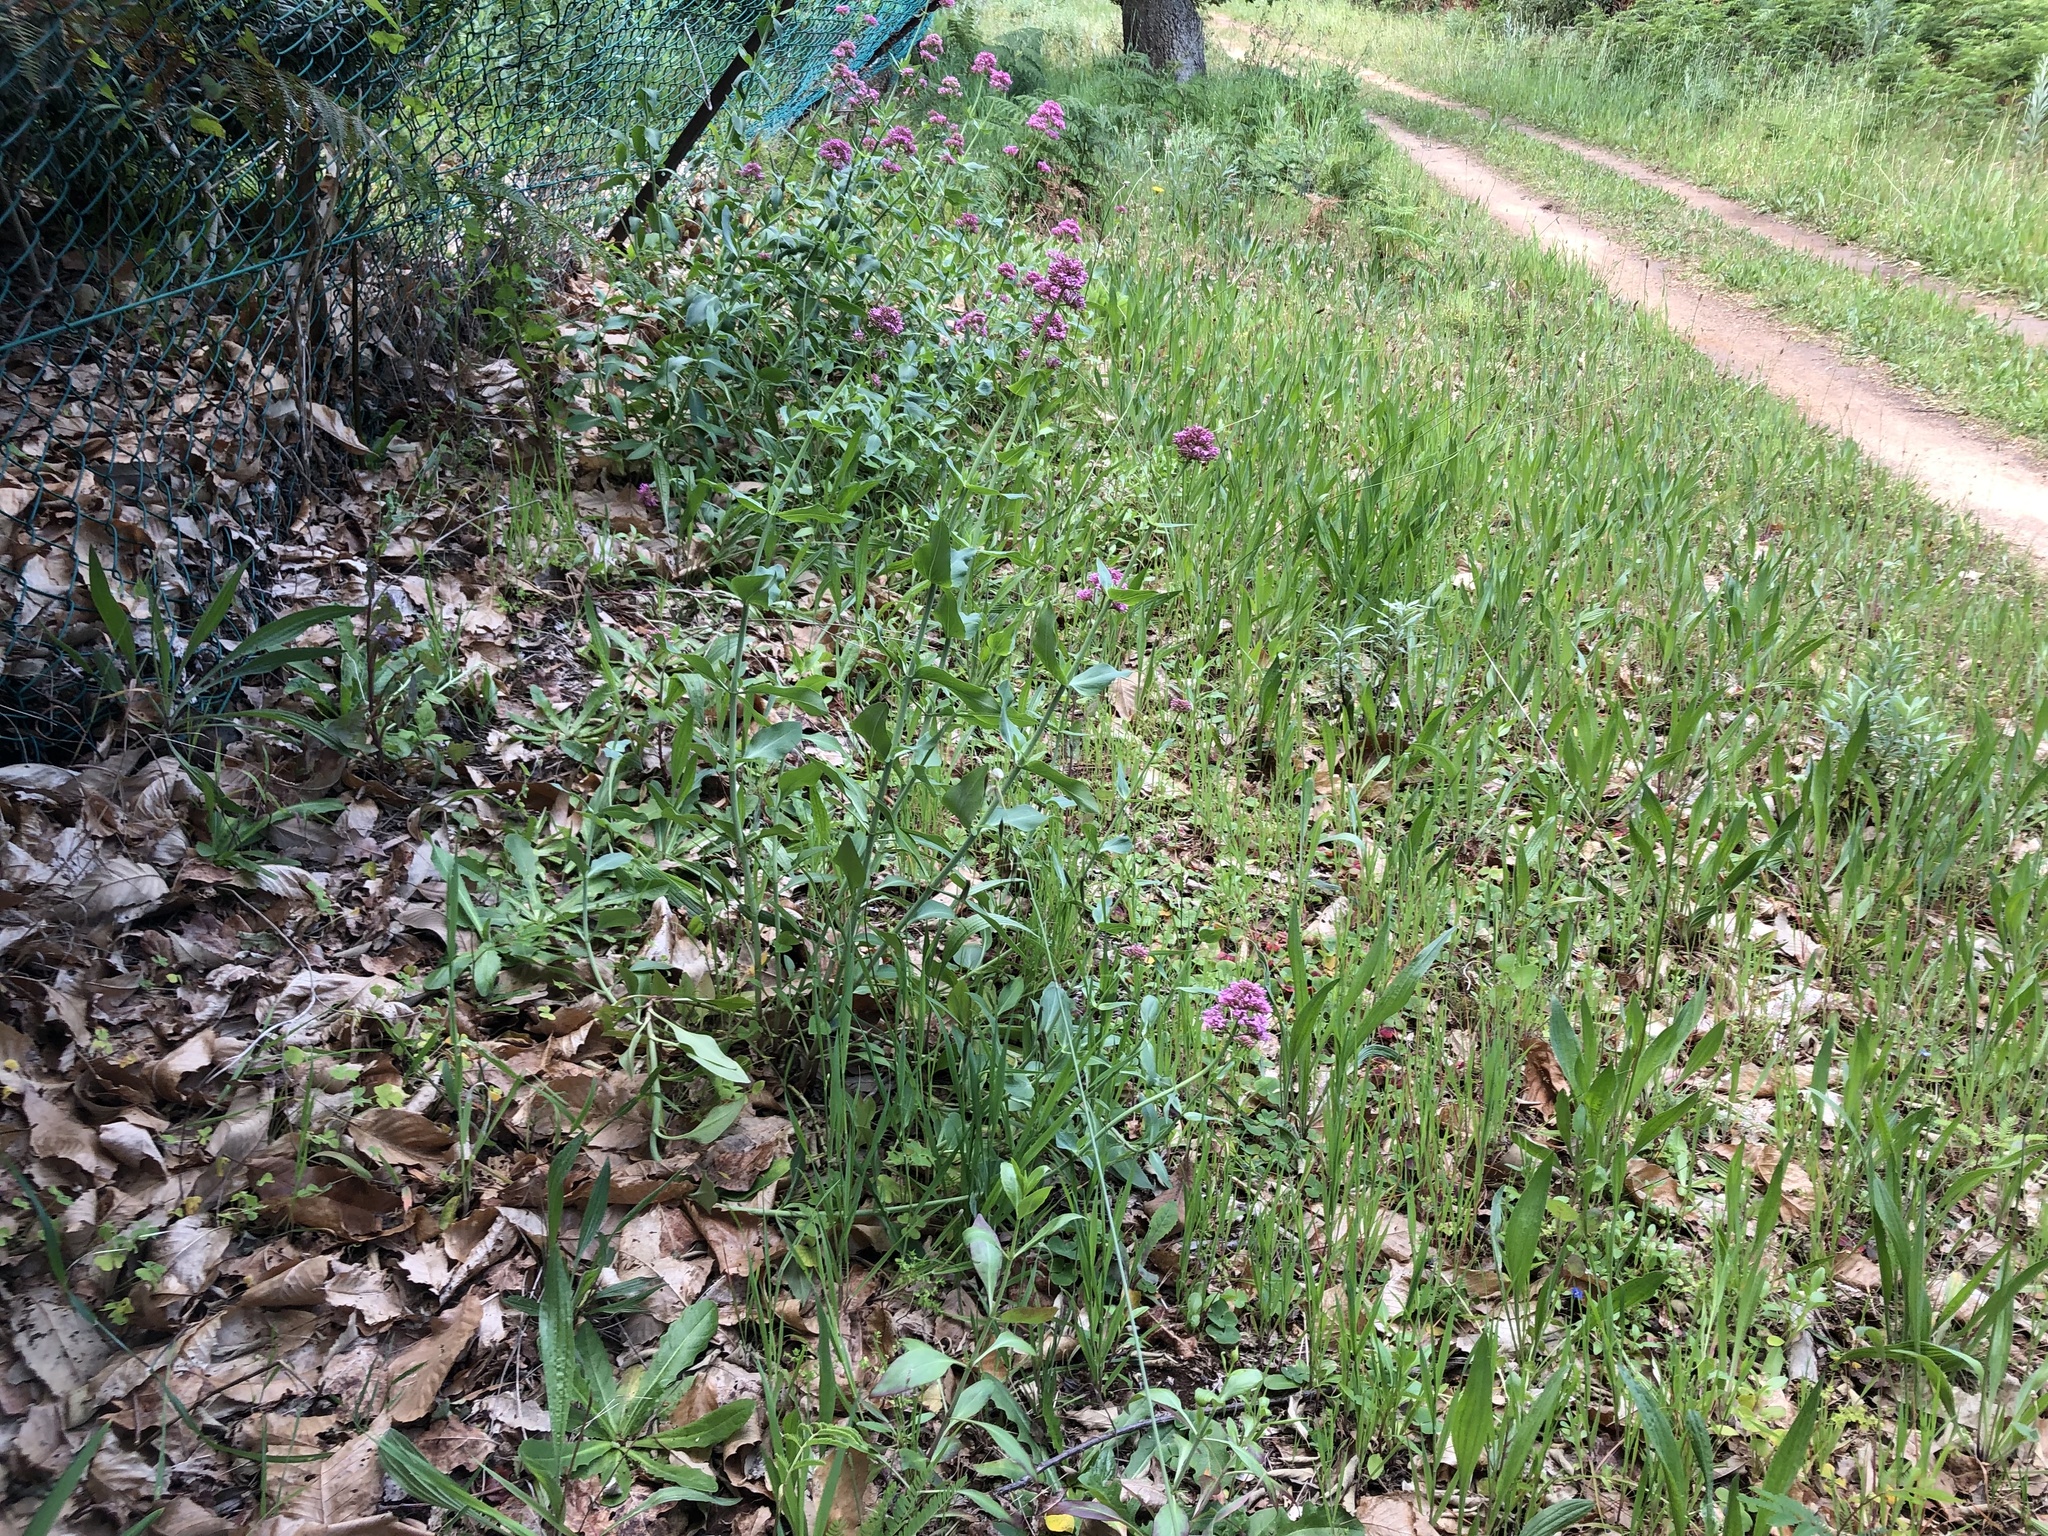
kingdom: Plantae
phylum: Tracheophyta
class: Magnoliopsida
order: Dipsacales
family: Caprifoliaceae
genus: Centranthus
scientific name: Centranthus ruber
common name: Red valerian
